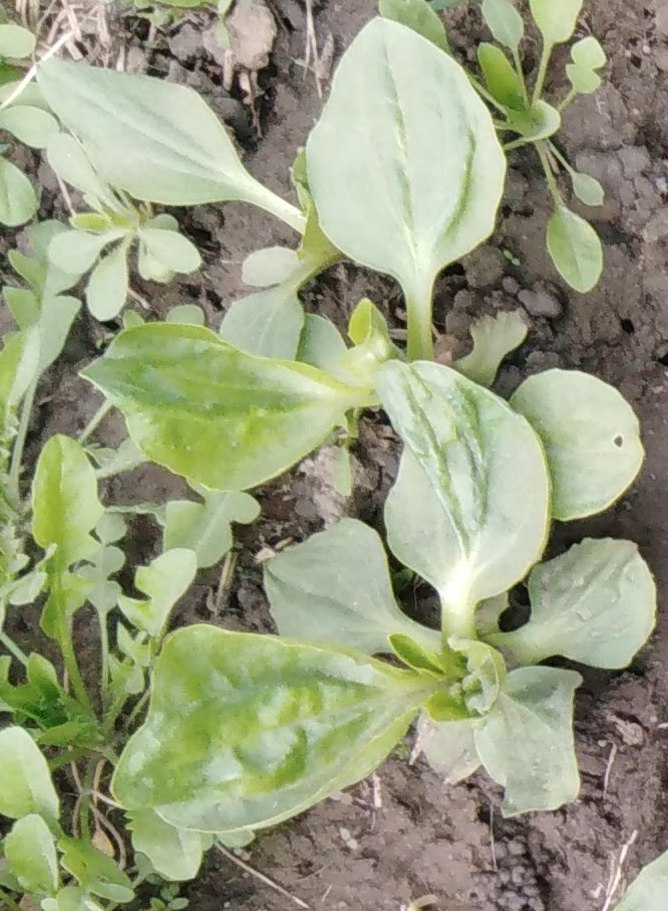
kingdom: Plantae
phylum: Tracheophyta
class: Magnoliopsida
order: Lamiales
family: Plantaginaceae
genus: Plantago
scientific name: Plantago major
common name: Common plantain
